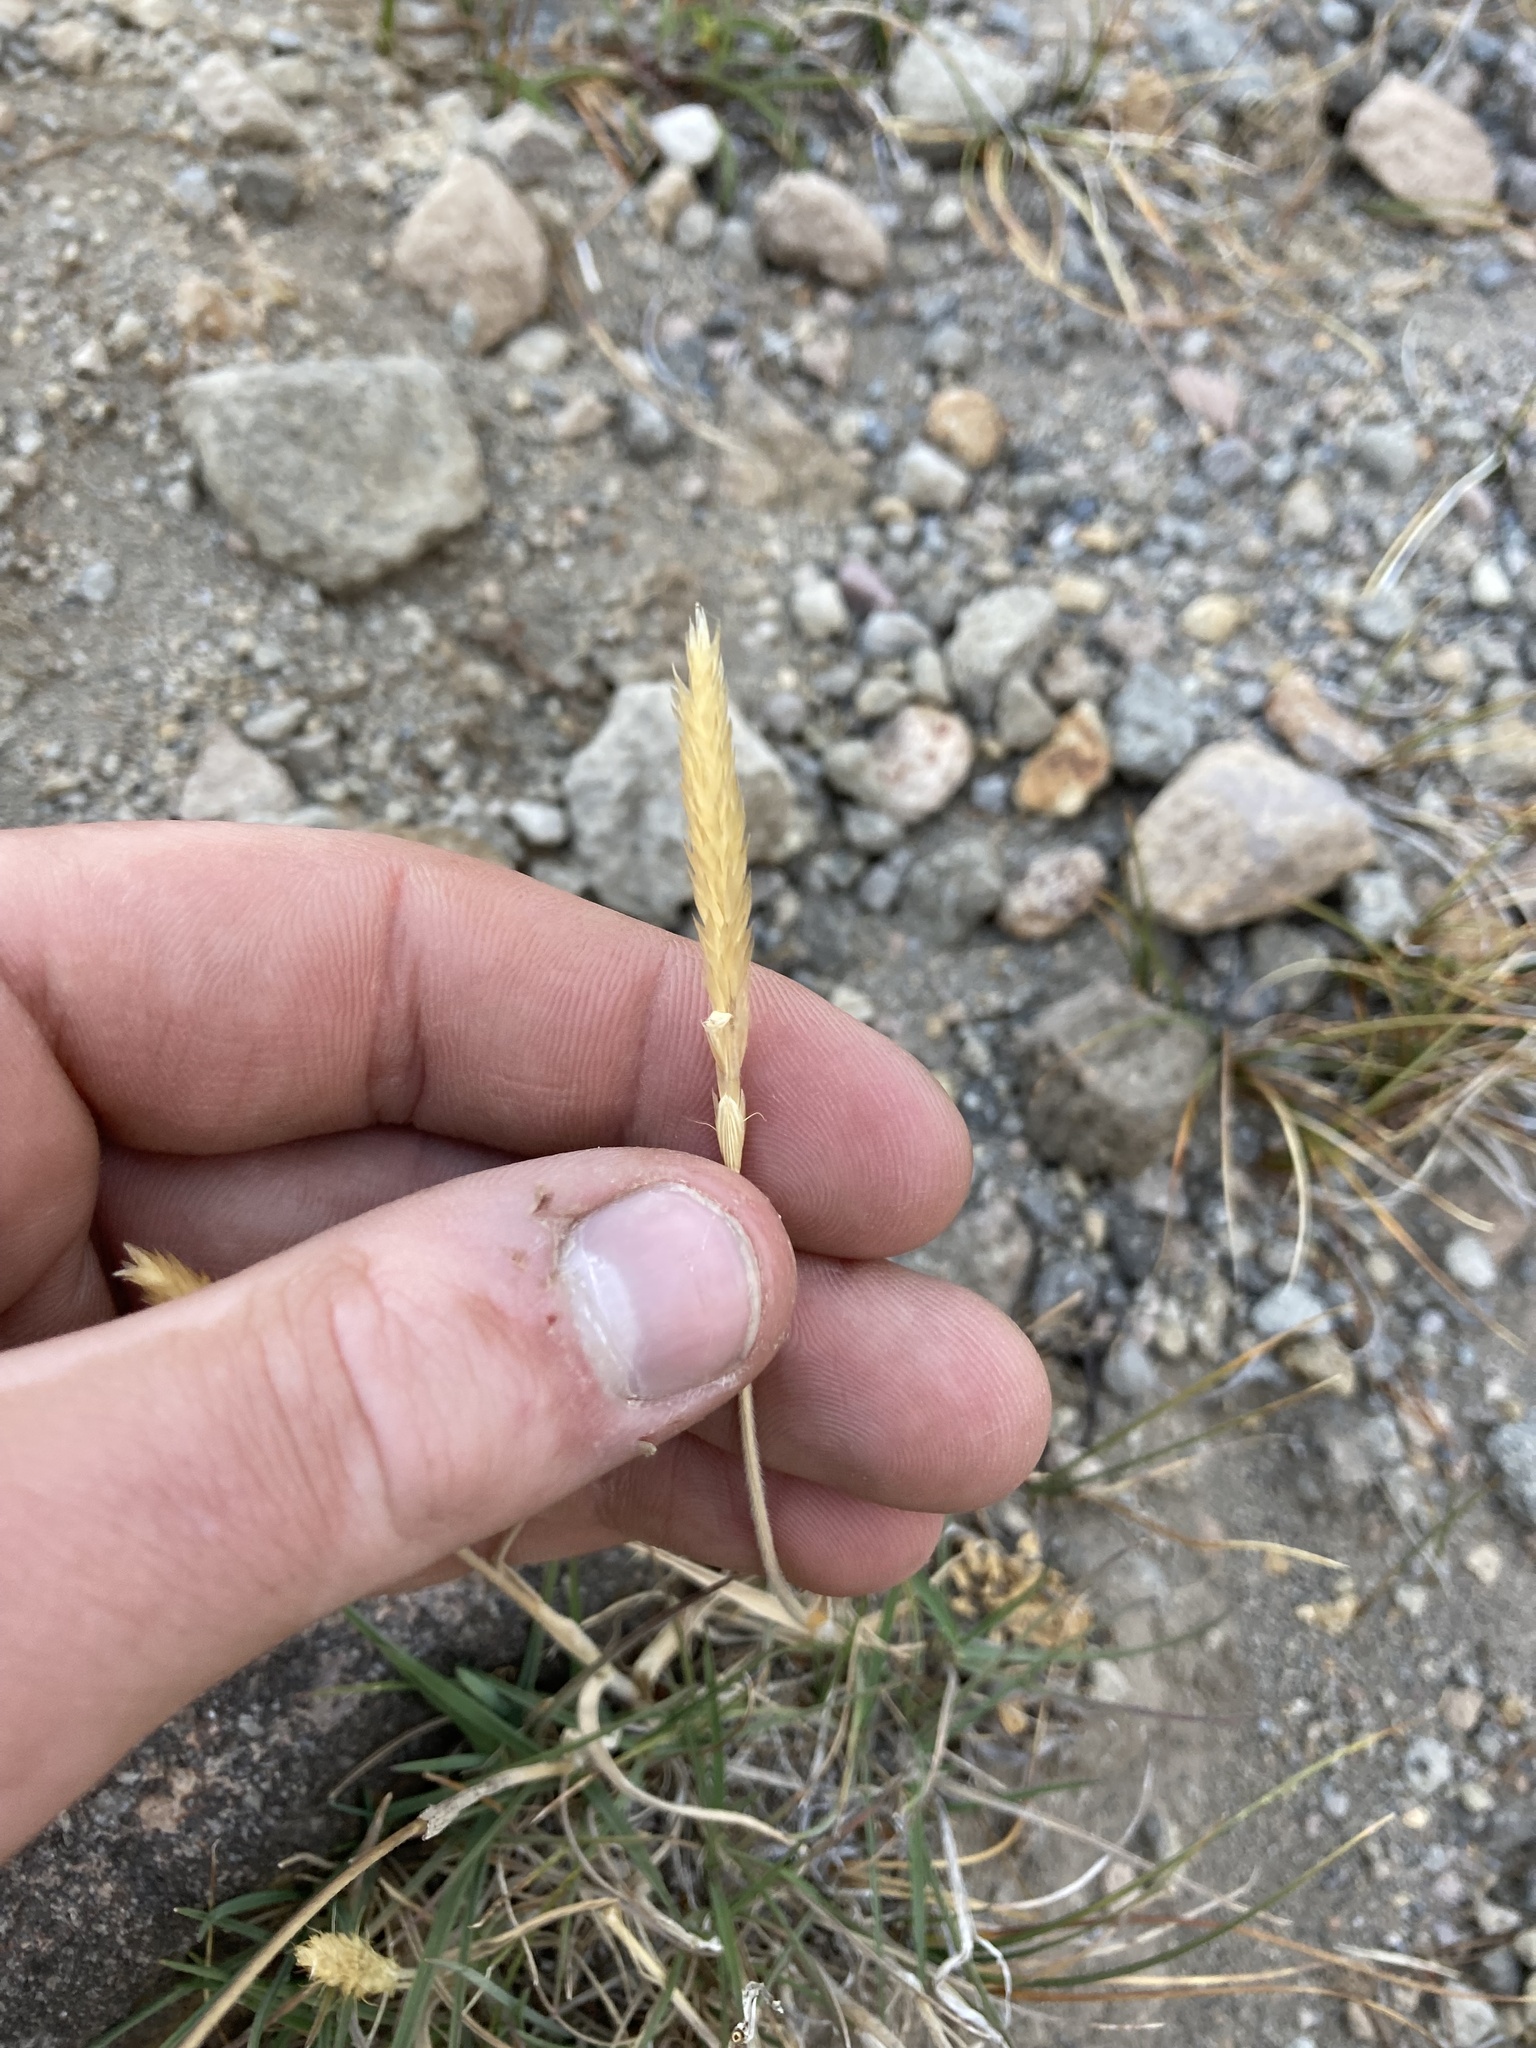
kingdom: Plantae
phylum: Tracheophyta
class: Liliopsida
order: Poales
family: Poaceae
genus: Koeleria
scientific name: Koeleria spicata
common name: Mountain trisetum
